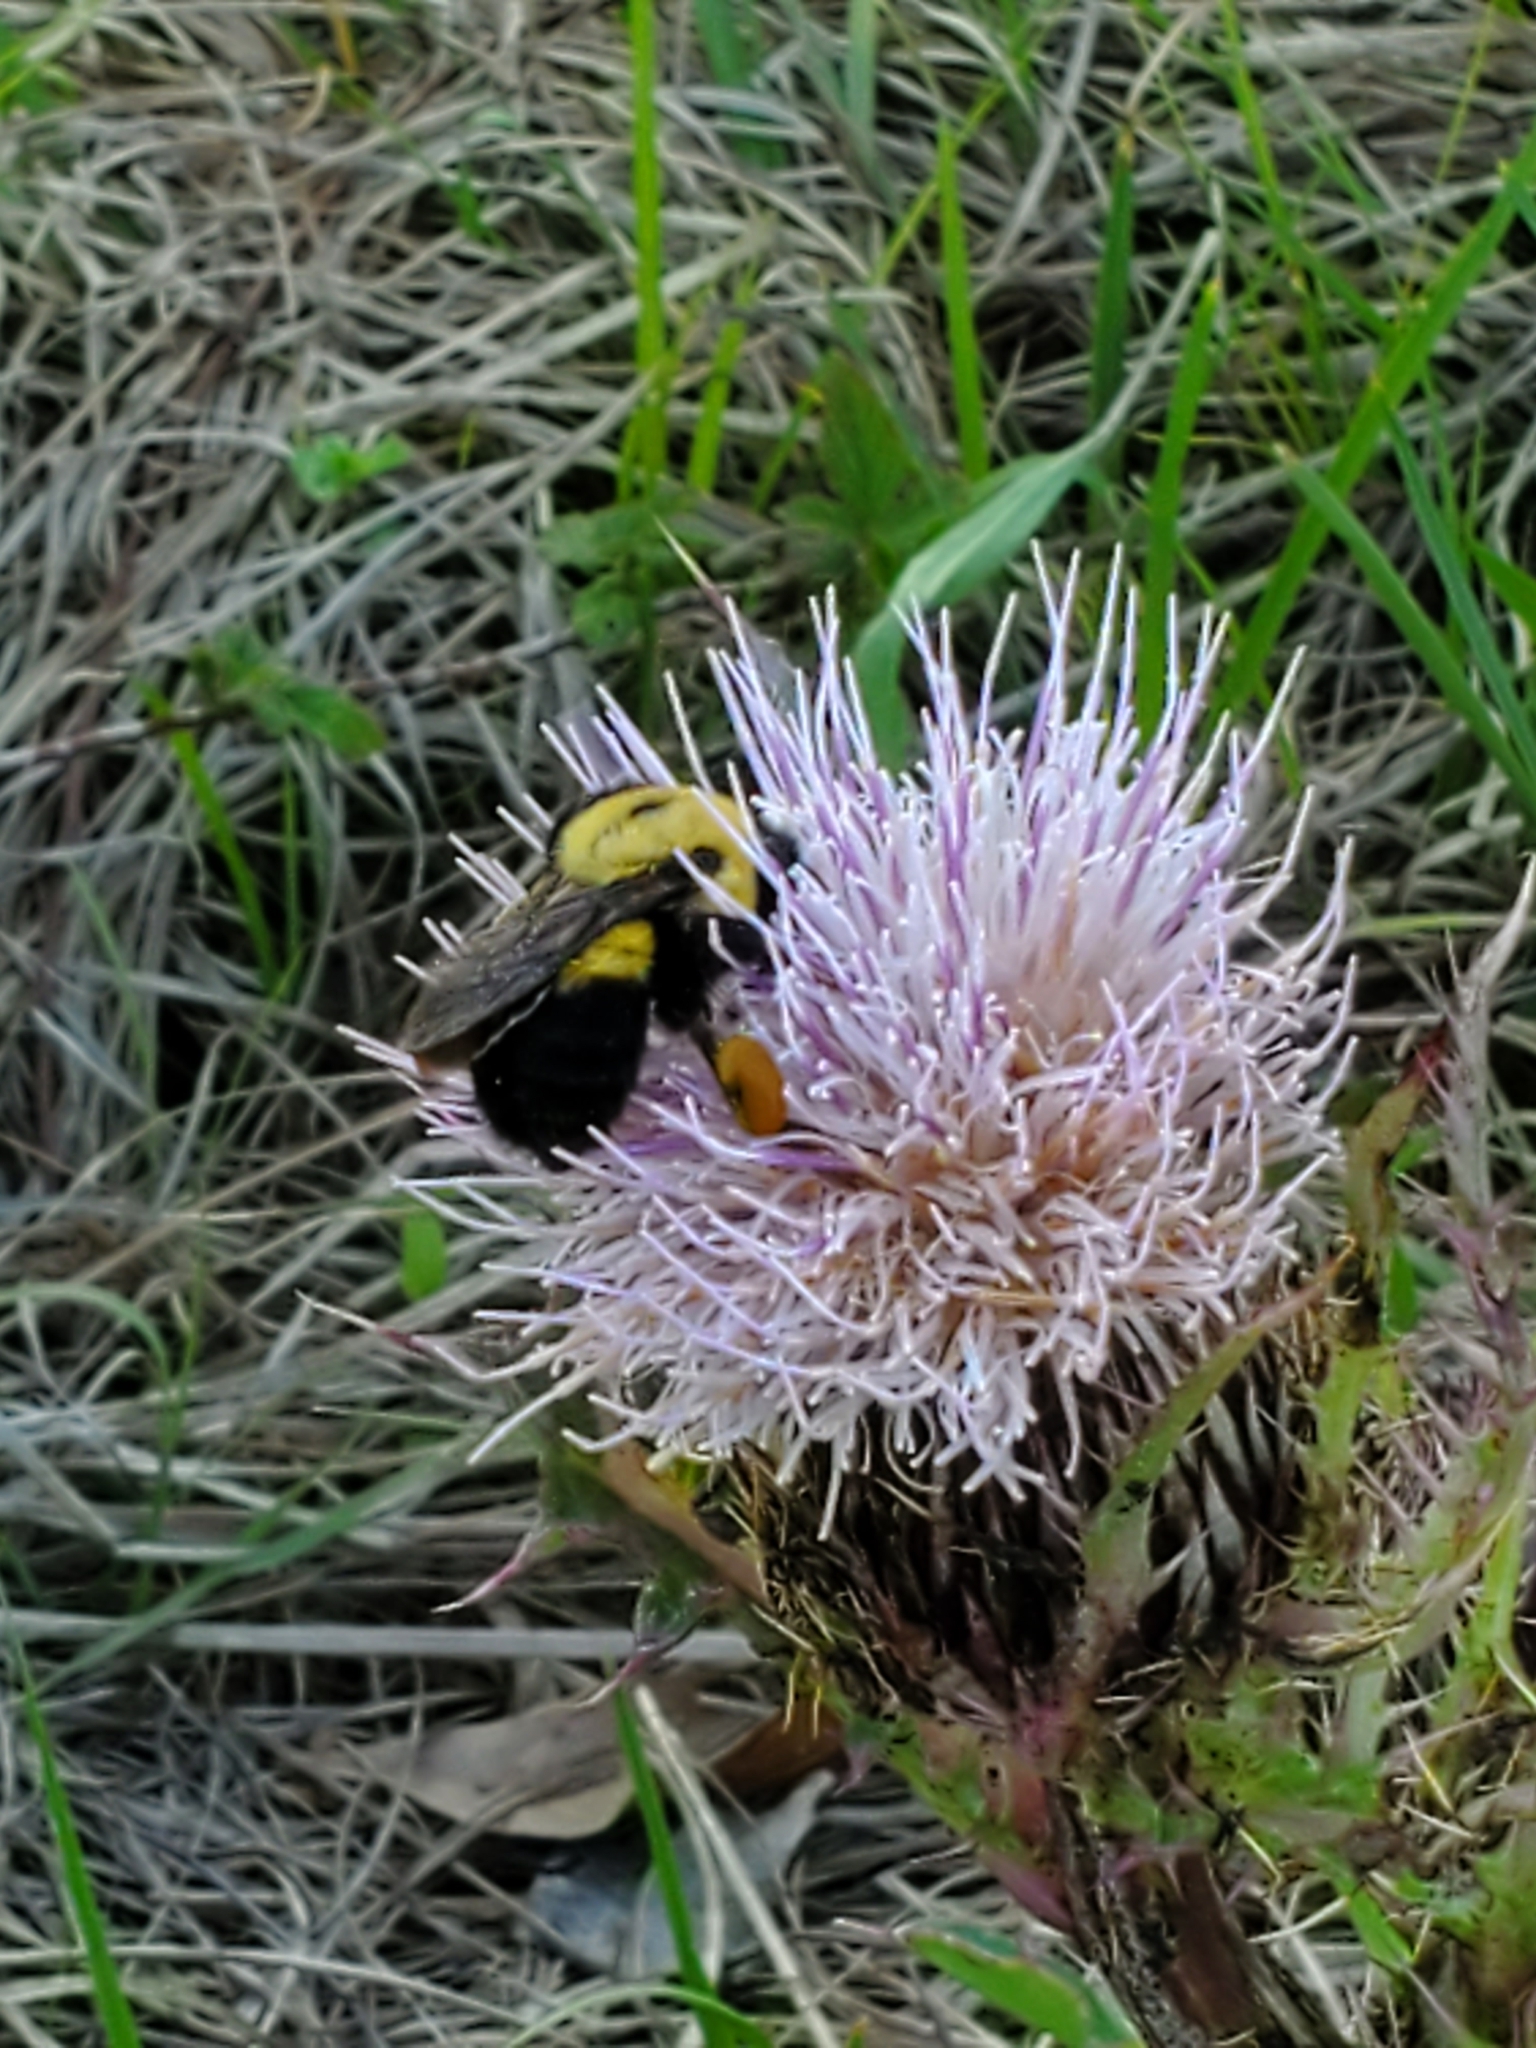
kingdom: Animalia
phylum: Arthropoda
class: Insecta
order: Hymenoptera
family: Apidae
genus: Bombus
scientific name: Bombus griseocollis
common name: Brown-belted bumble bee
